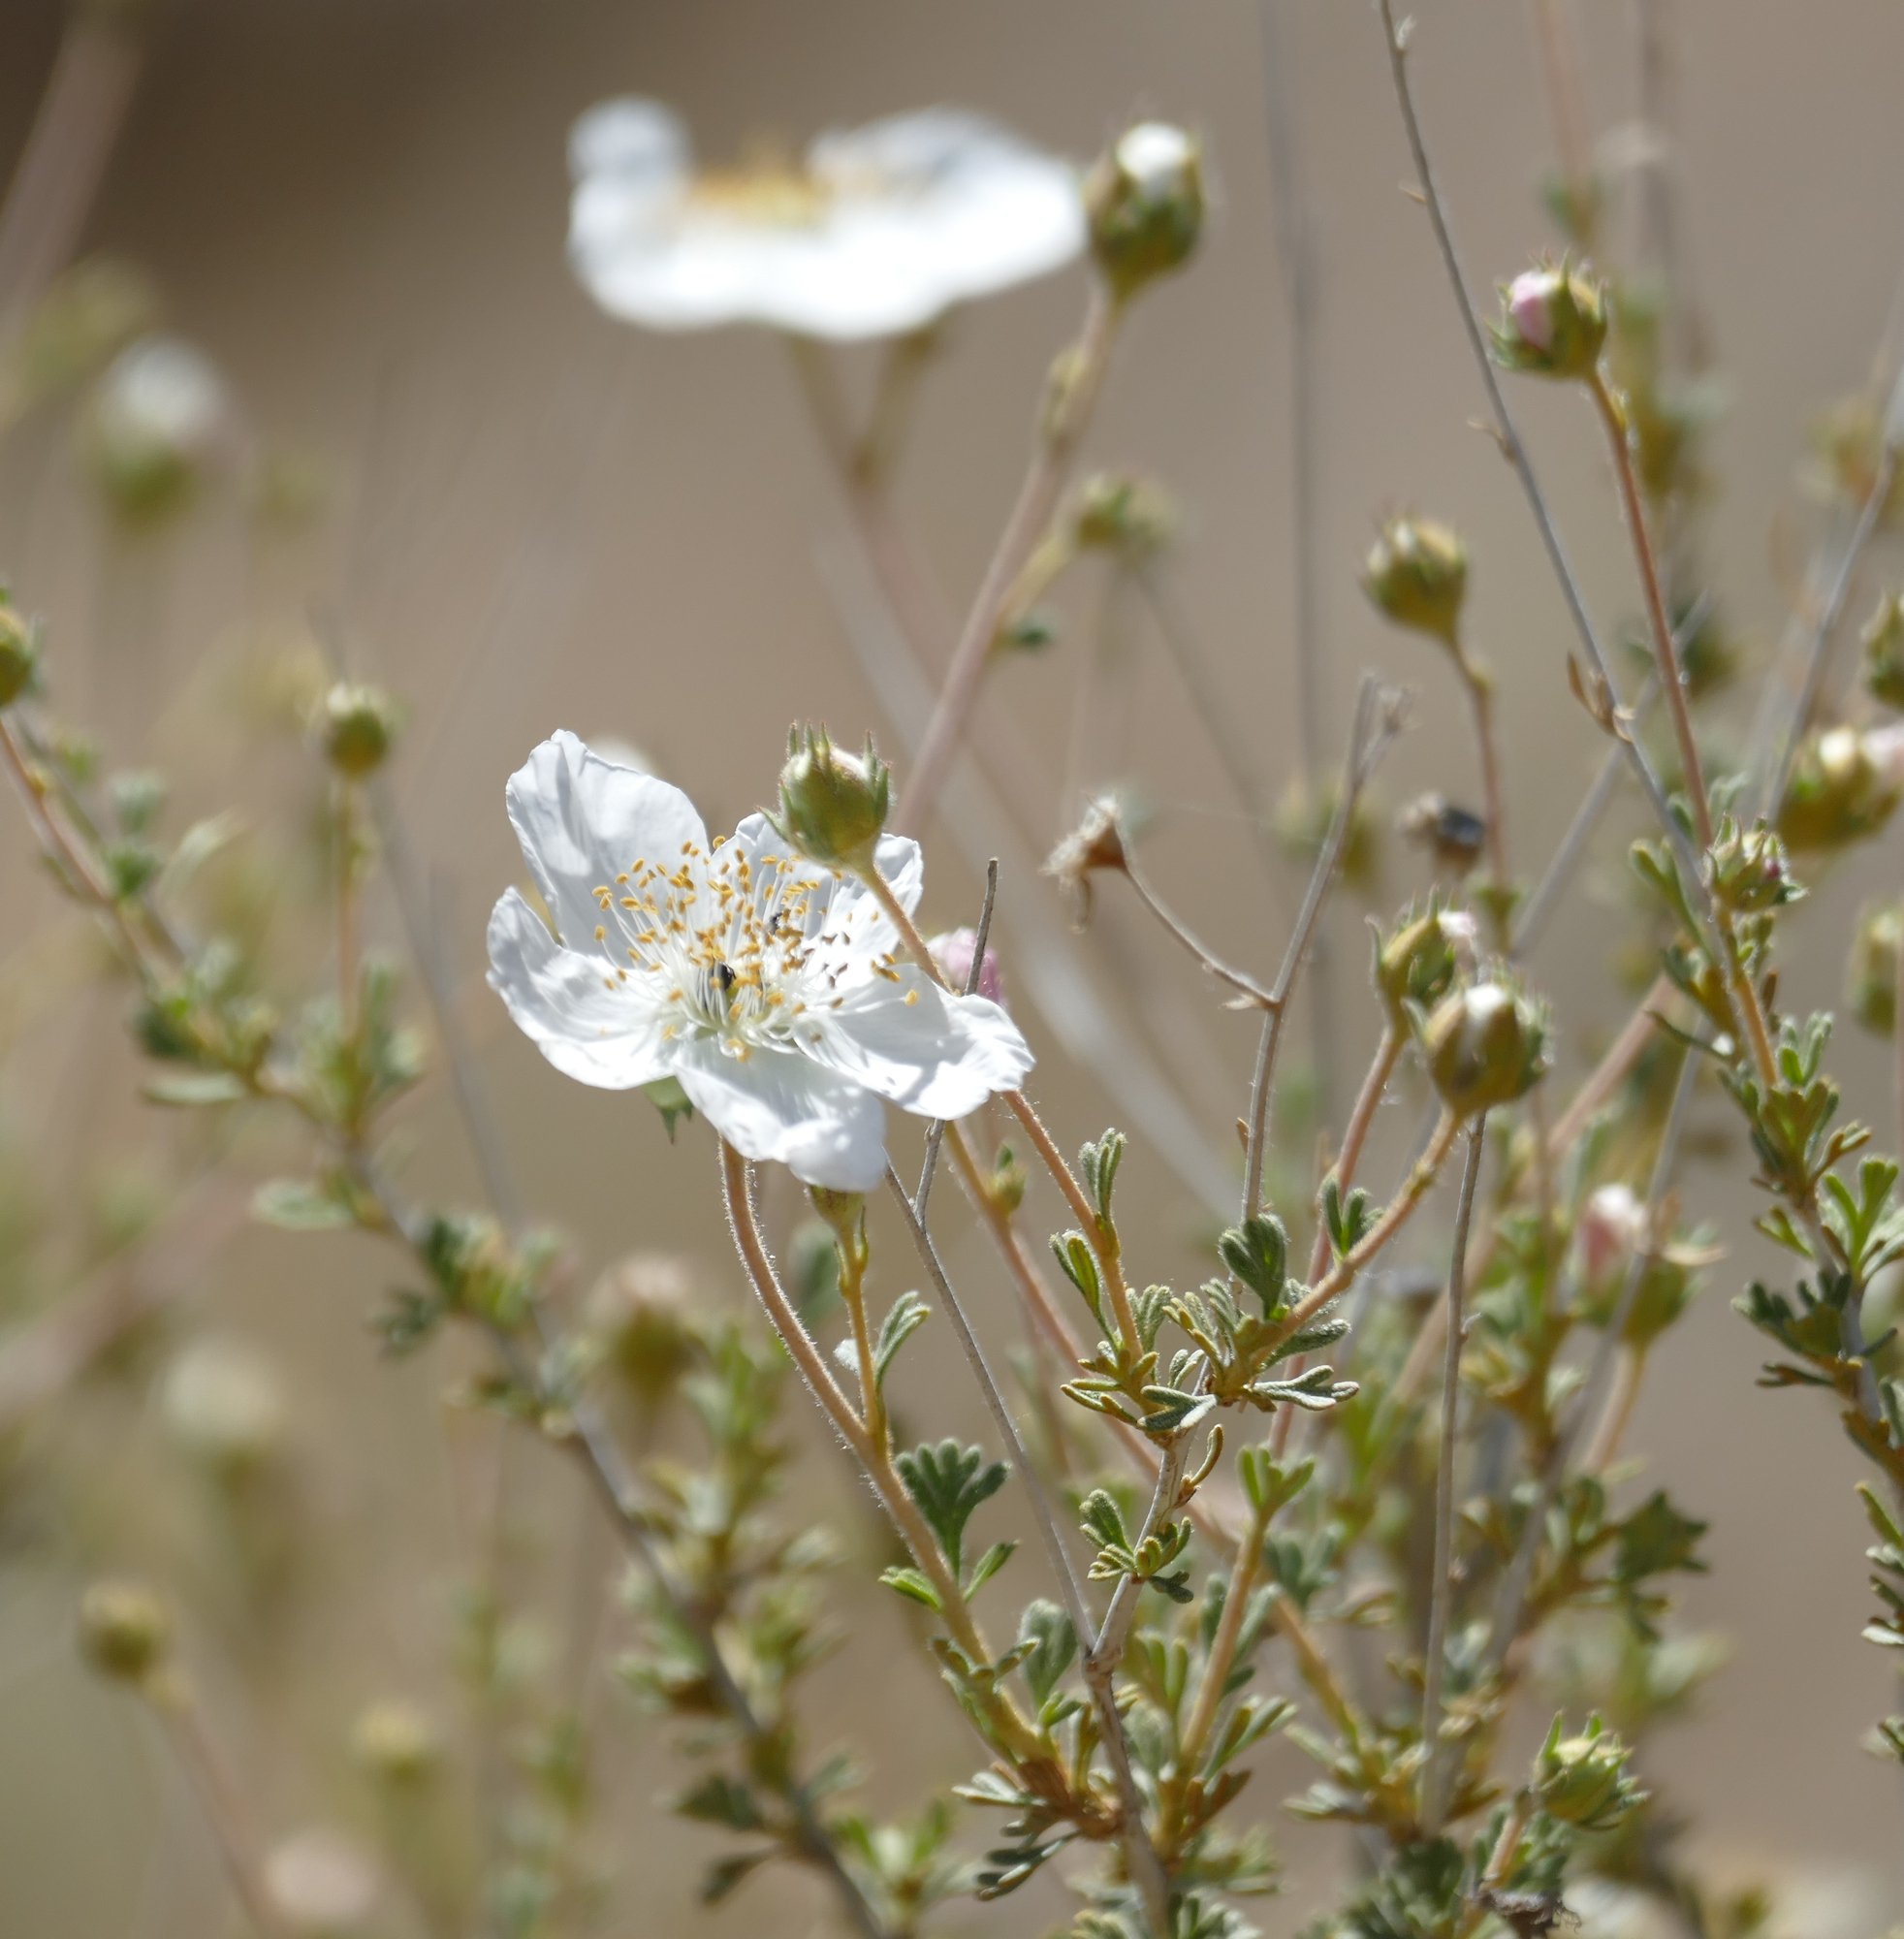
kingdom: Plantae
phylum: Tracheophyta
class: Magnoliopsida
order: Rosales
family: Rosaceae
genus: Fallugia
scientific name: Fallugia paradoxa
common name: Apache-plume
